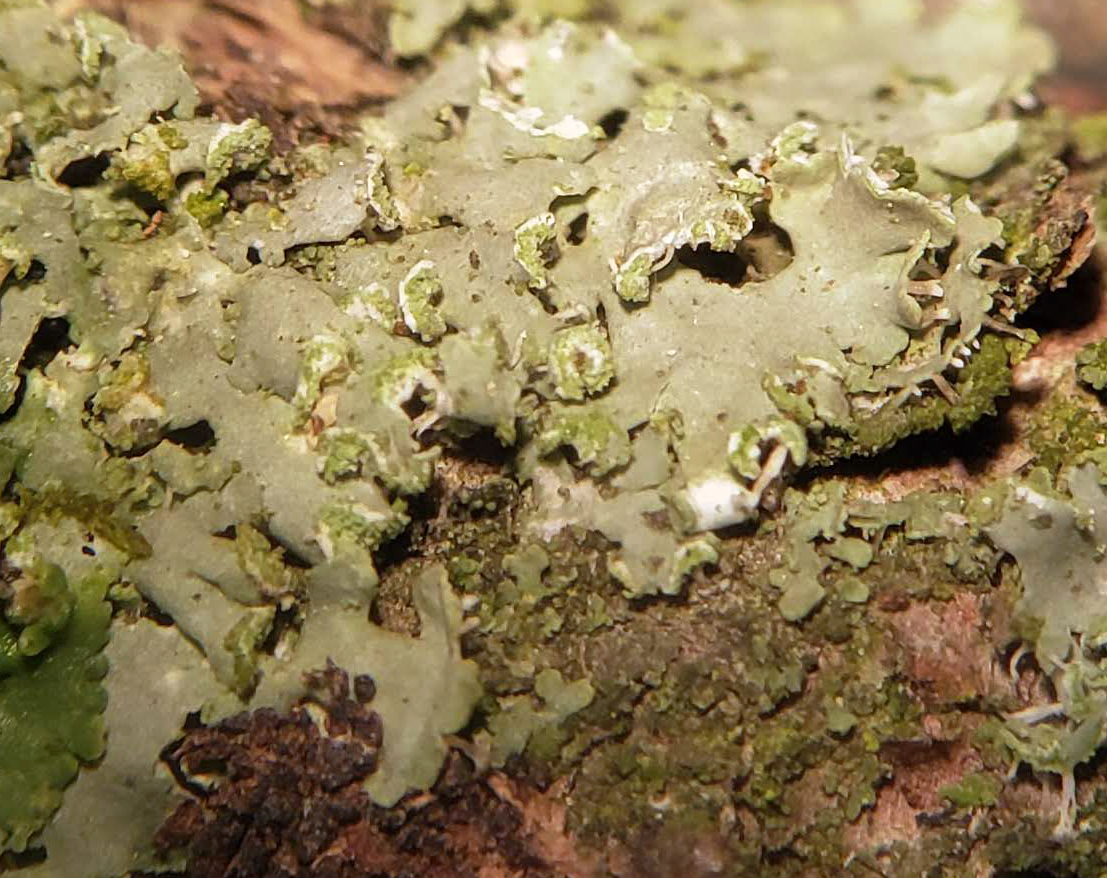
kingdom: Fungi
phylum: Ascomycota
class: Lecanoromycetes
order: Caliciales
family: Physciaceae
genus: Physciella
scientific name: Physciella chloantha
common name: Cryptic rosette lichen
